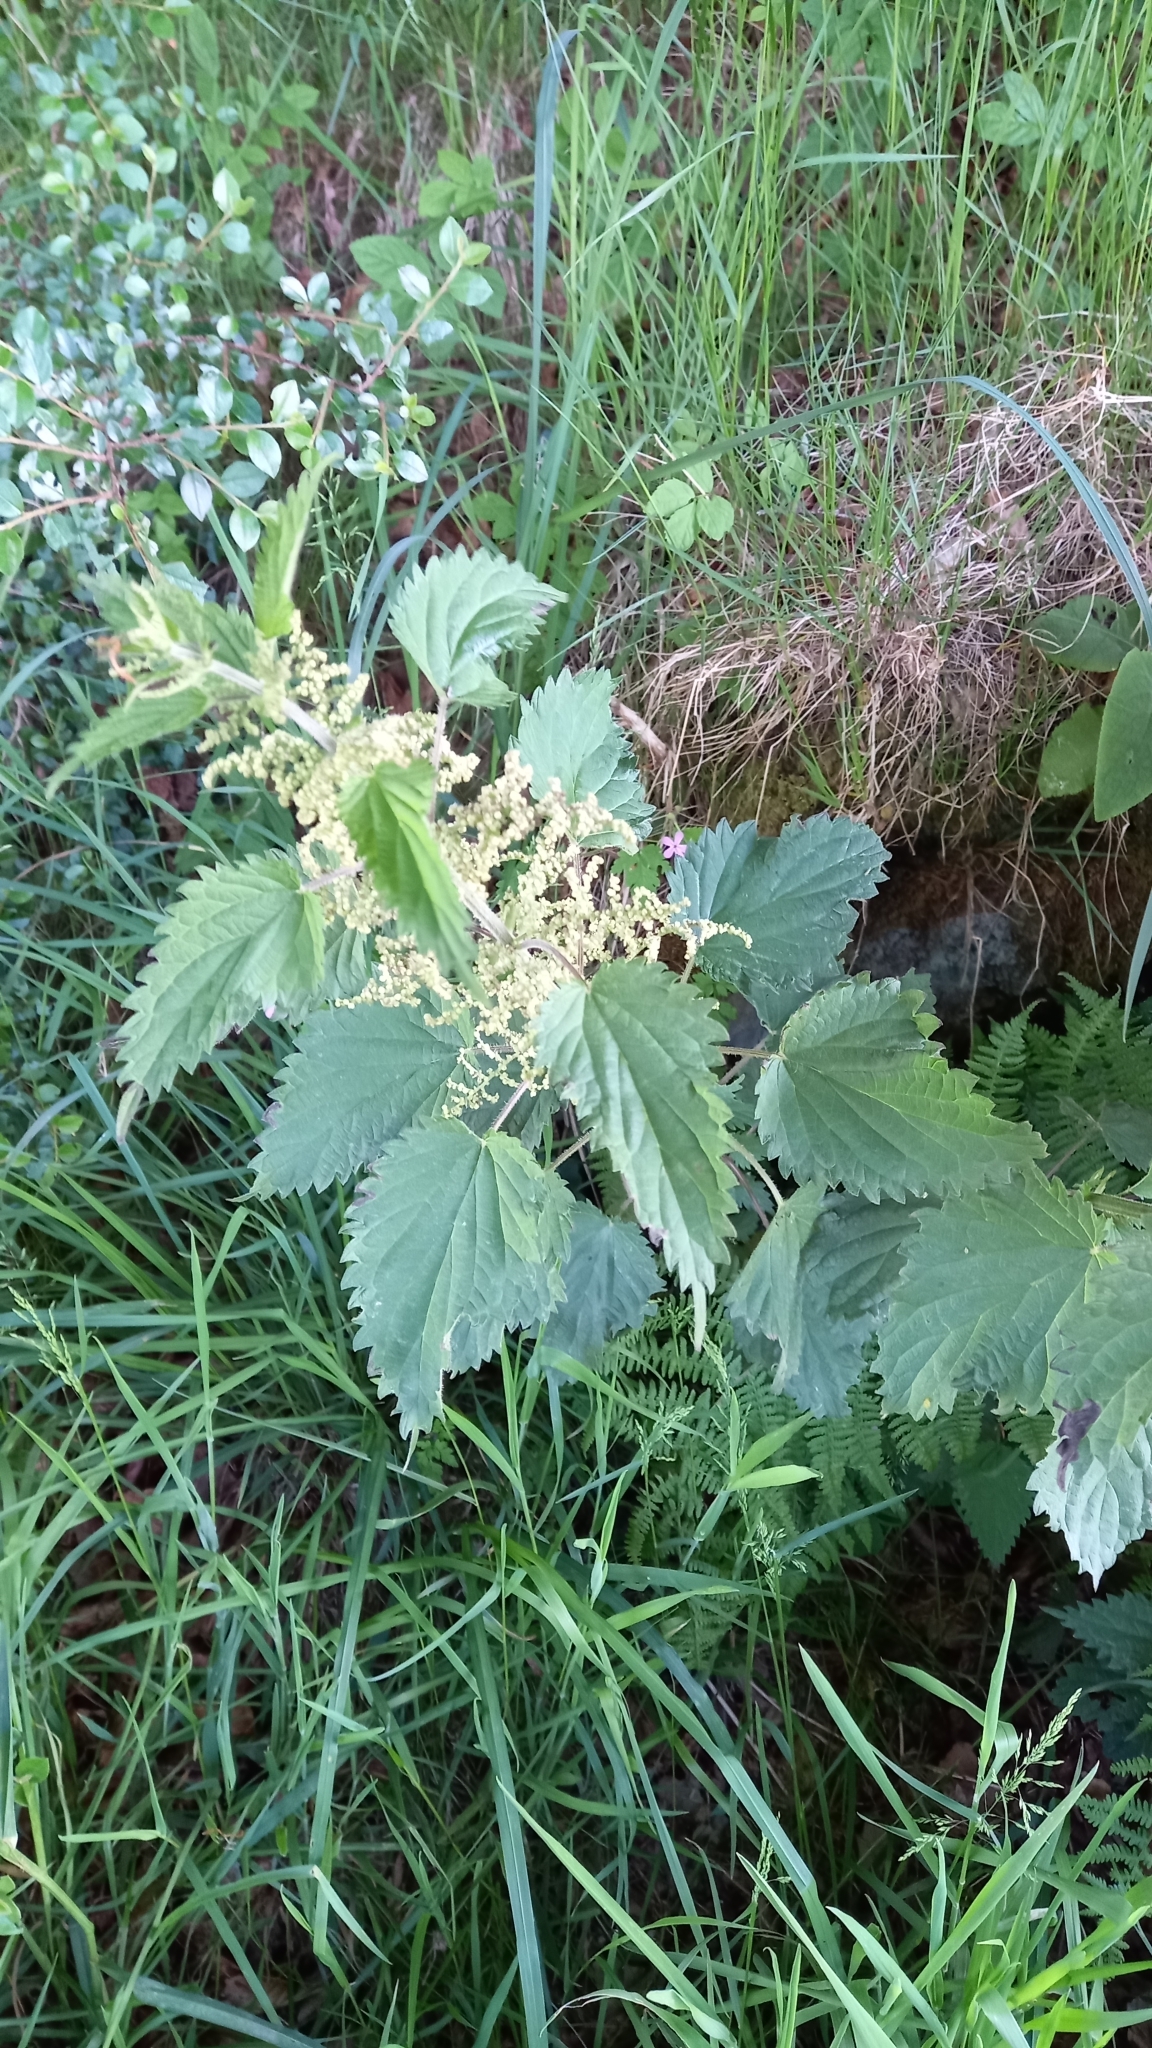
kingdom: Plantae
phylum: Tracheophyta
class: Magnoliopsida
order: Rosales
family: Urticaceae
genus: Urtica
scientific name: Urtica dioica
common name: Common nettle
